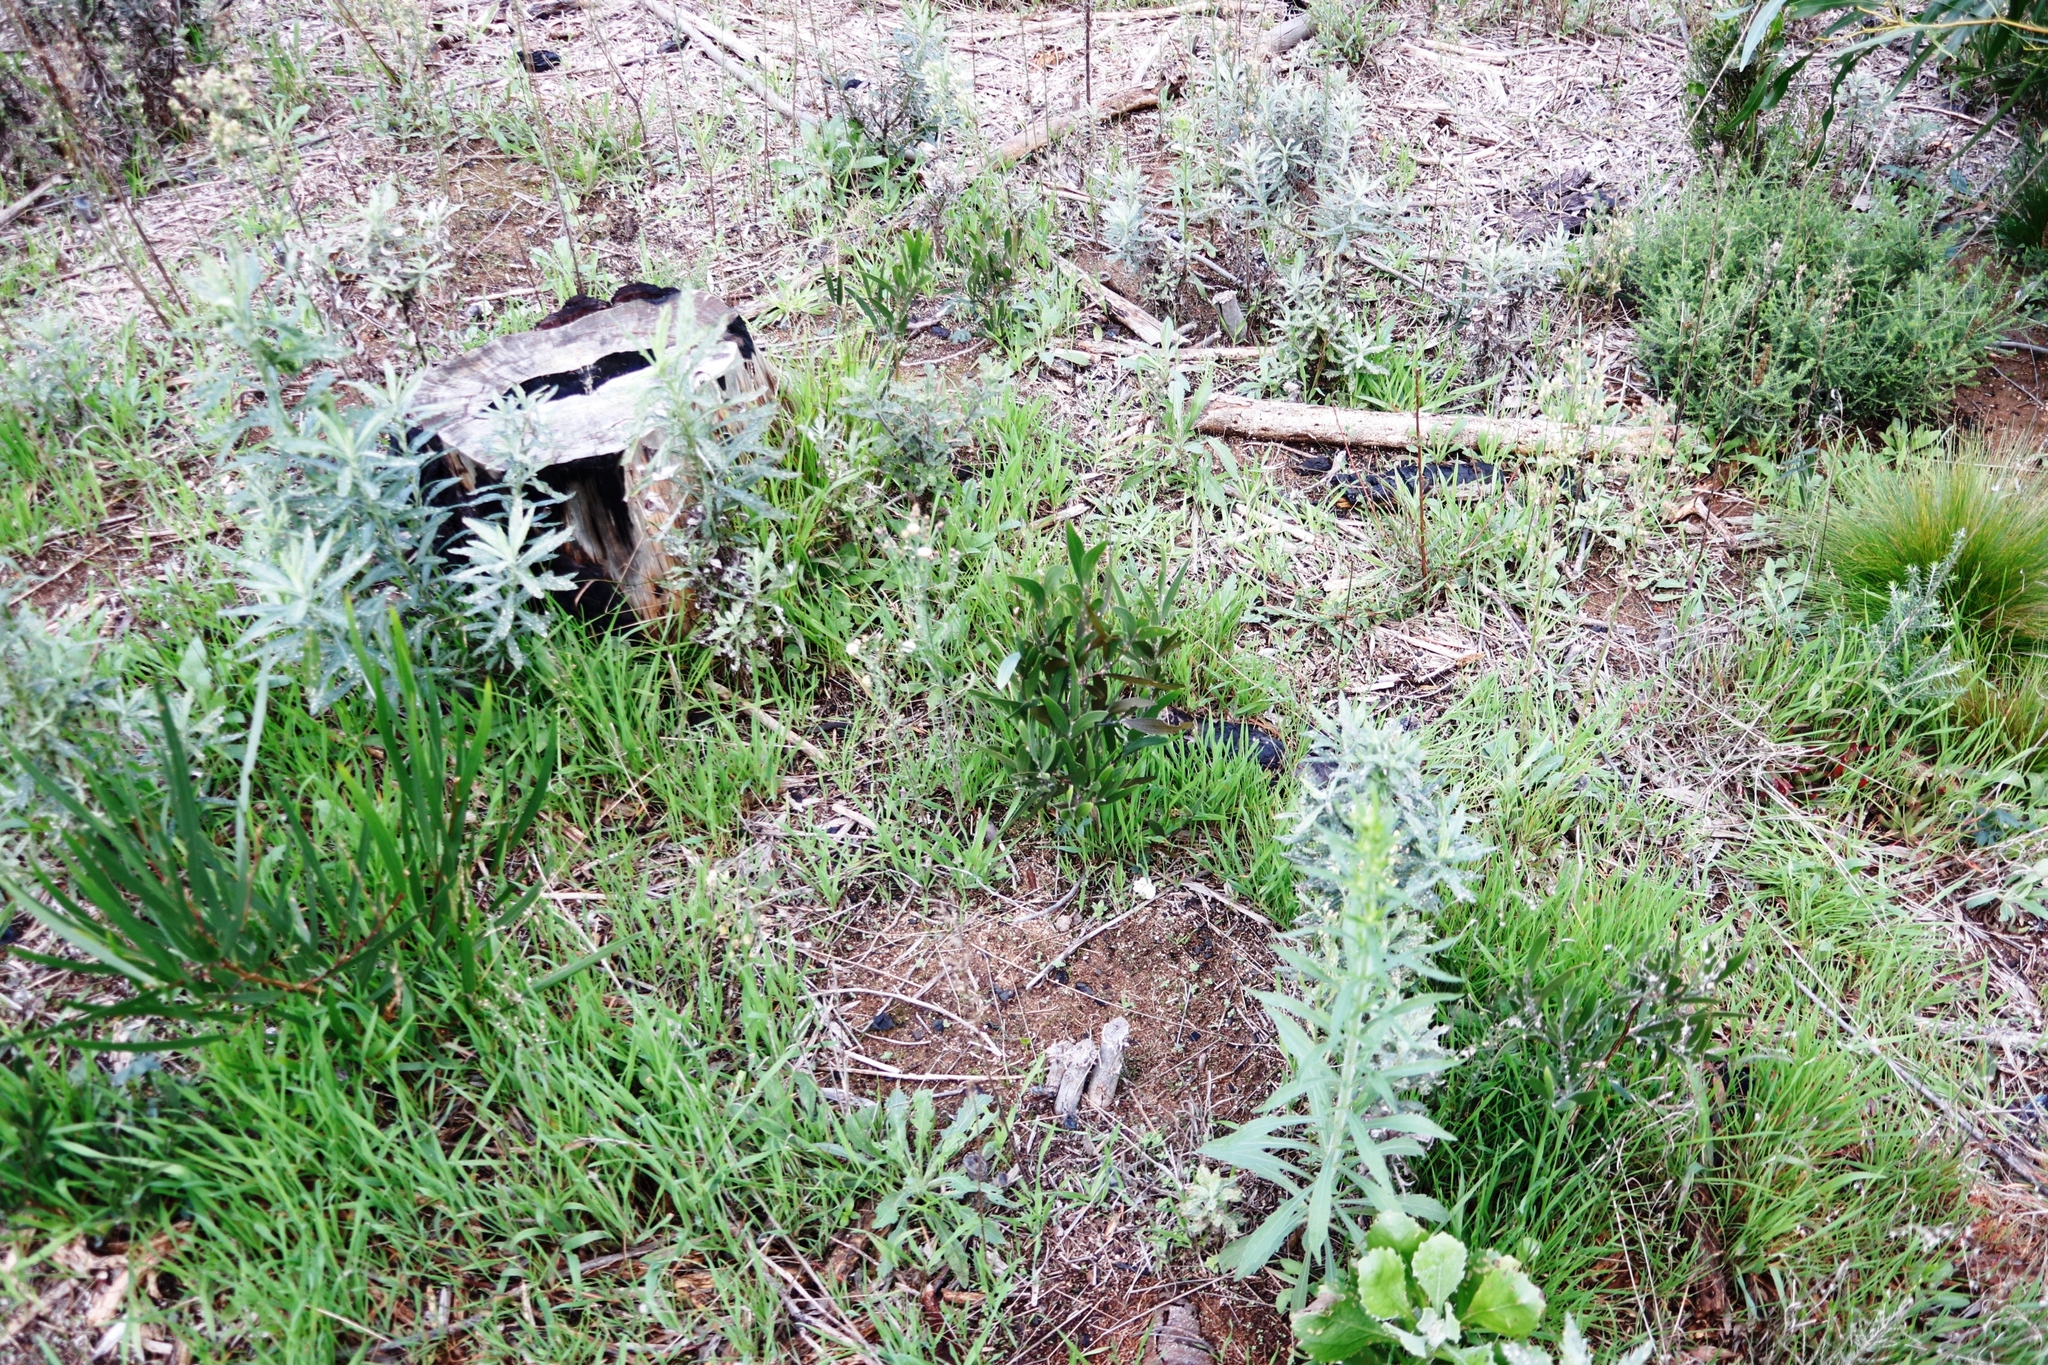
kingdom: Plantae
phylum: Tracheophyta
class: Magnoliopsida
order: Fabales
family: Fabaceae
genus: Acacia
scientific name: Acacia longifolia
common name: Sydney golden wattle
